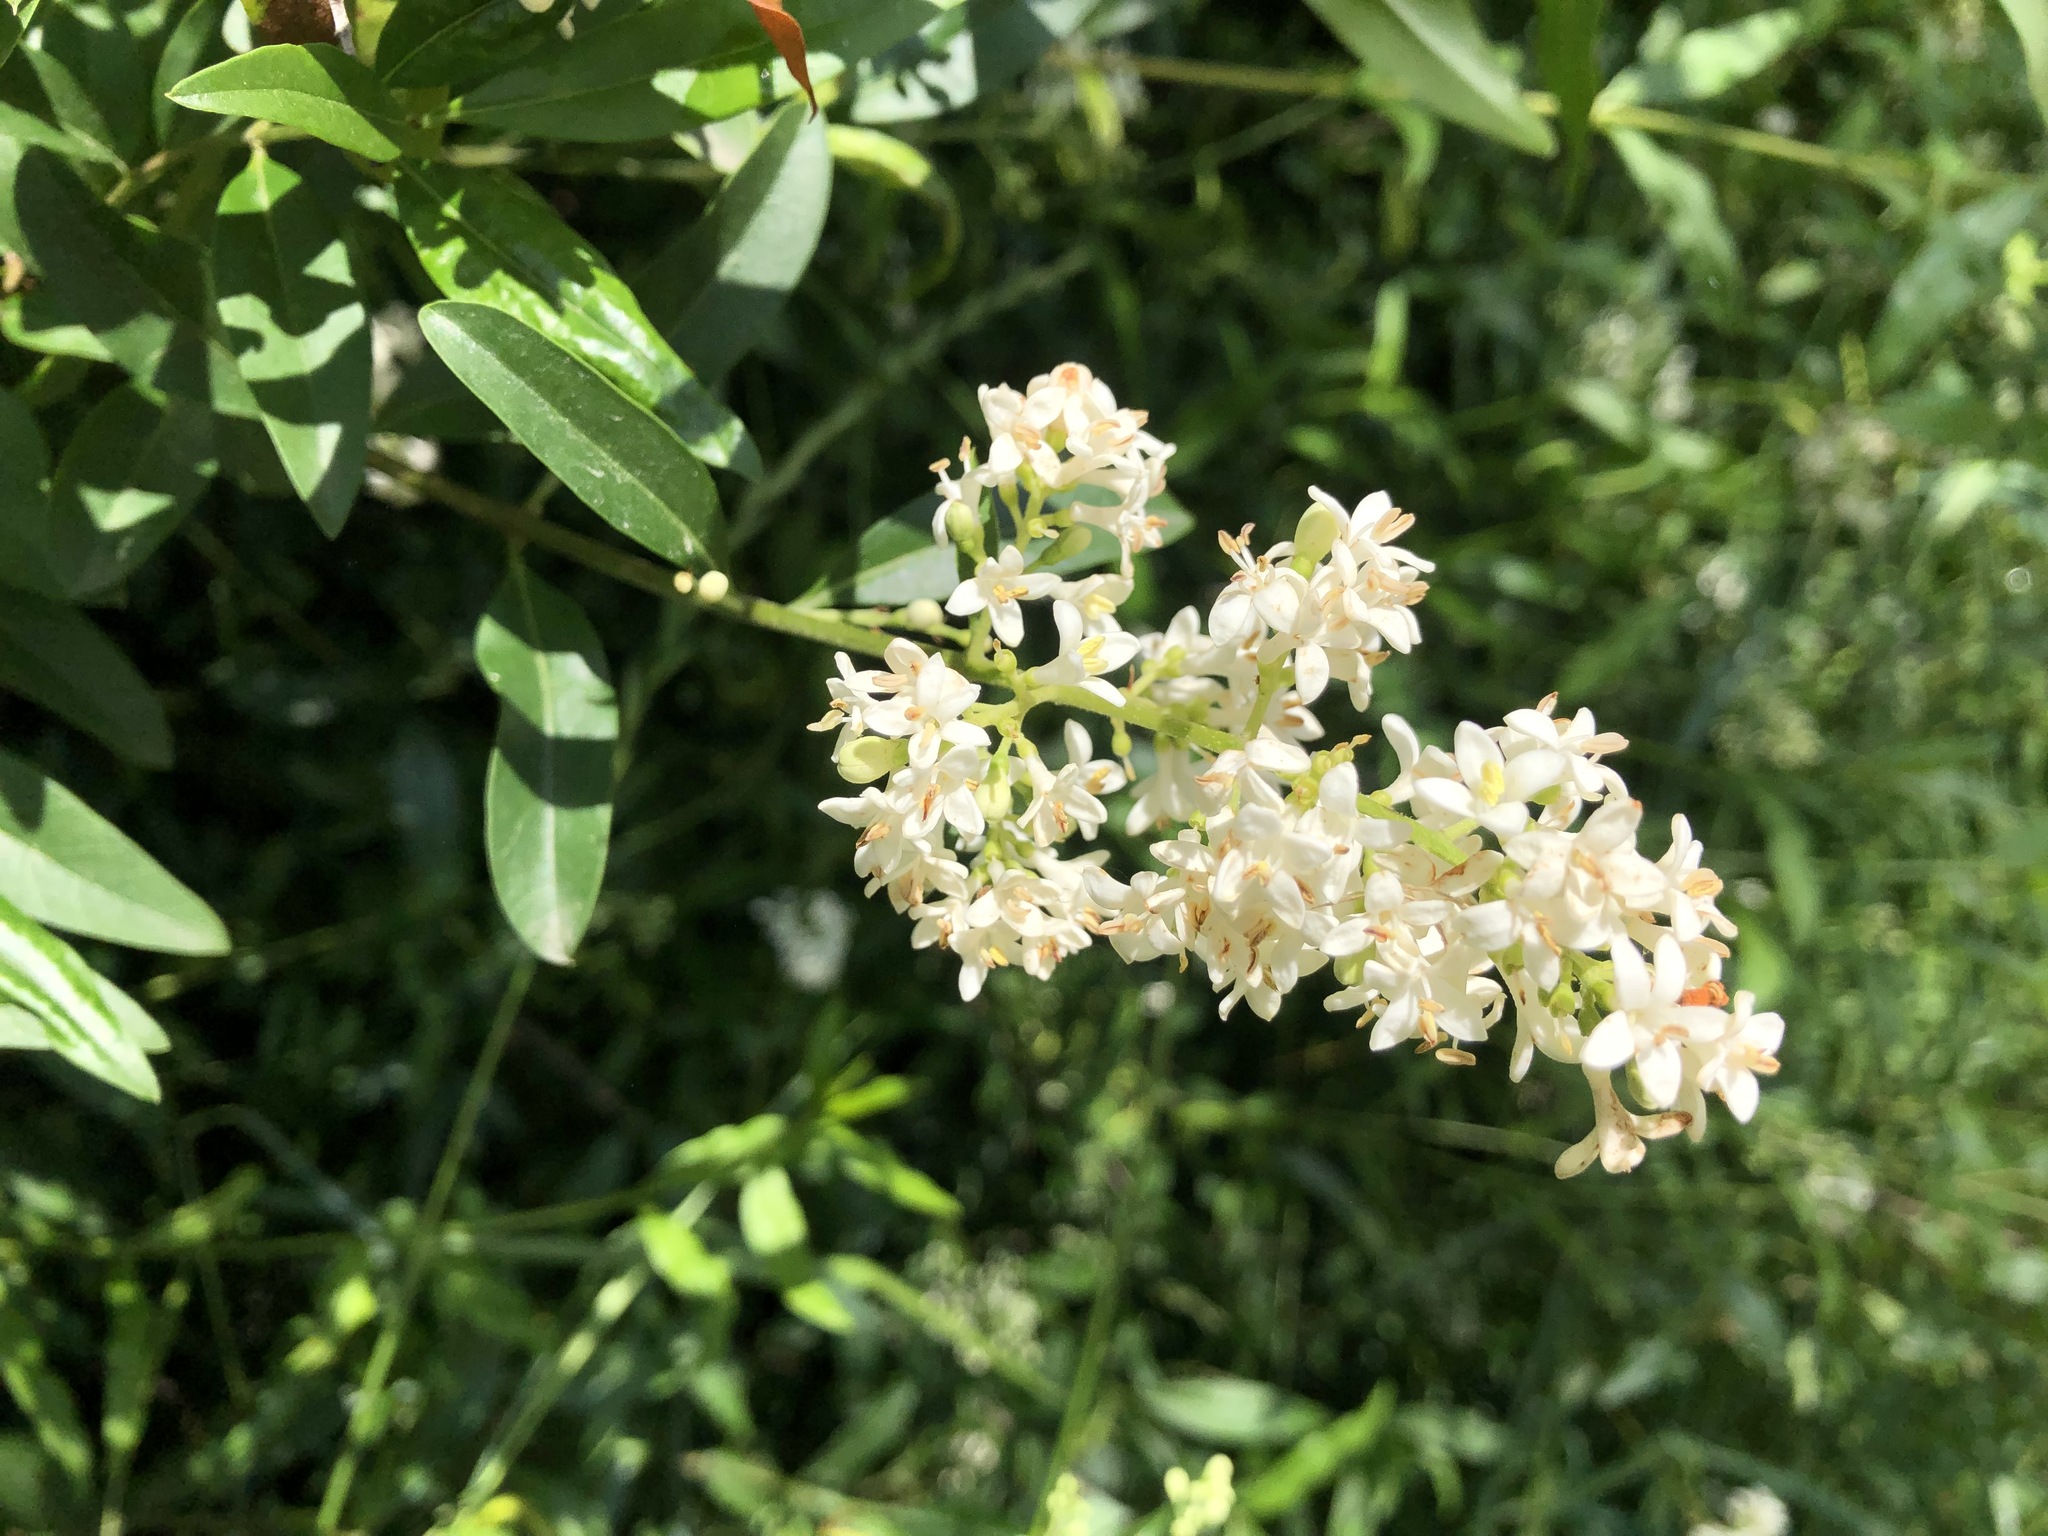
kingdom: Plantae
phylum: Tracheophyta
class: Magnoliopsida
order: Lamiales
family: Oleaceae
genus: Ligustrum
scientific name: Ligustrum vulgare
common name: Wild privet
